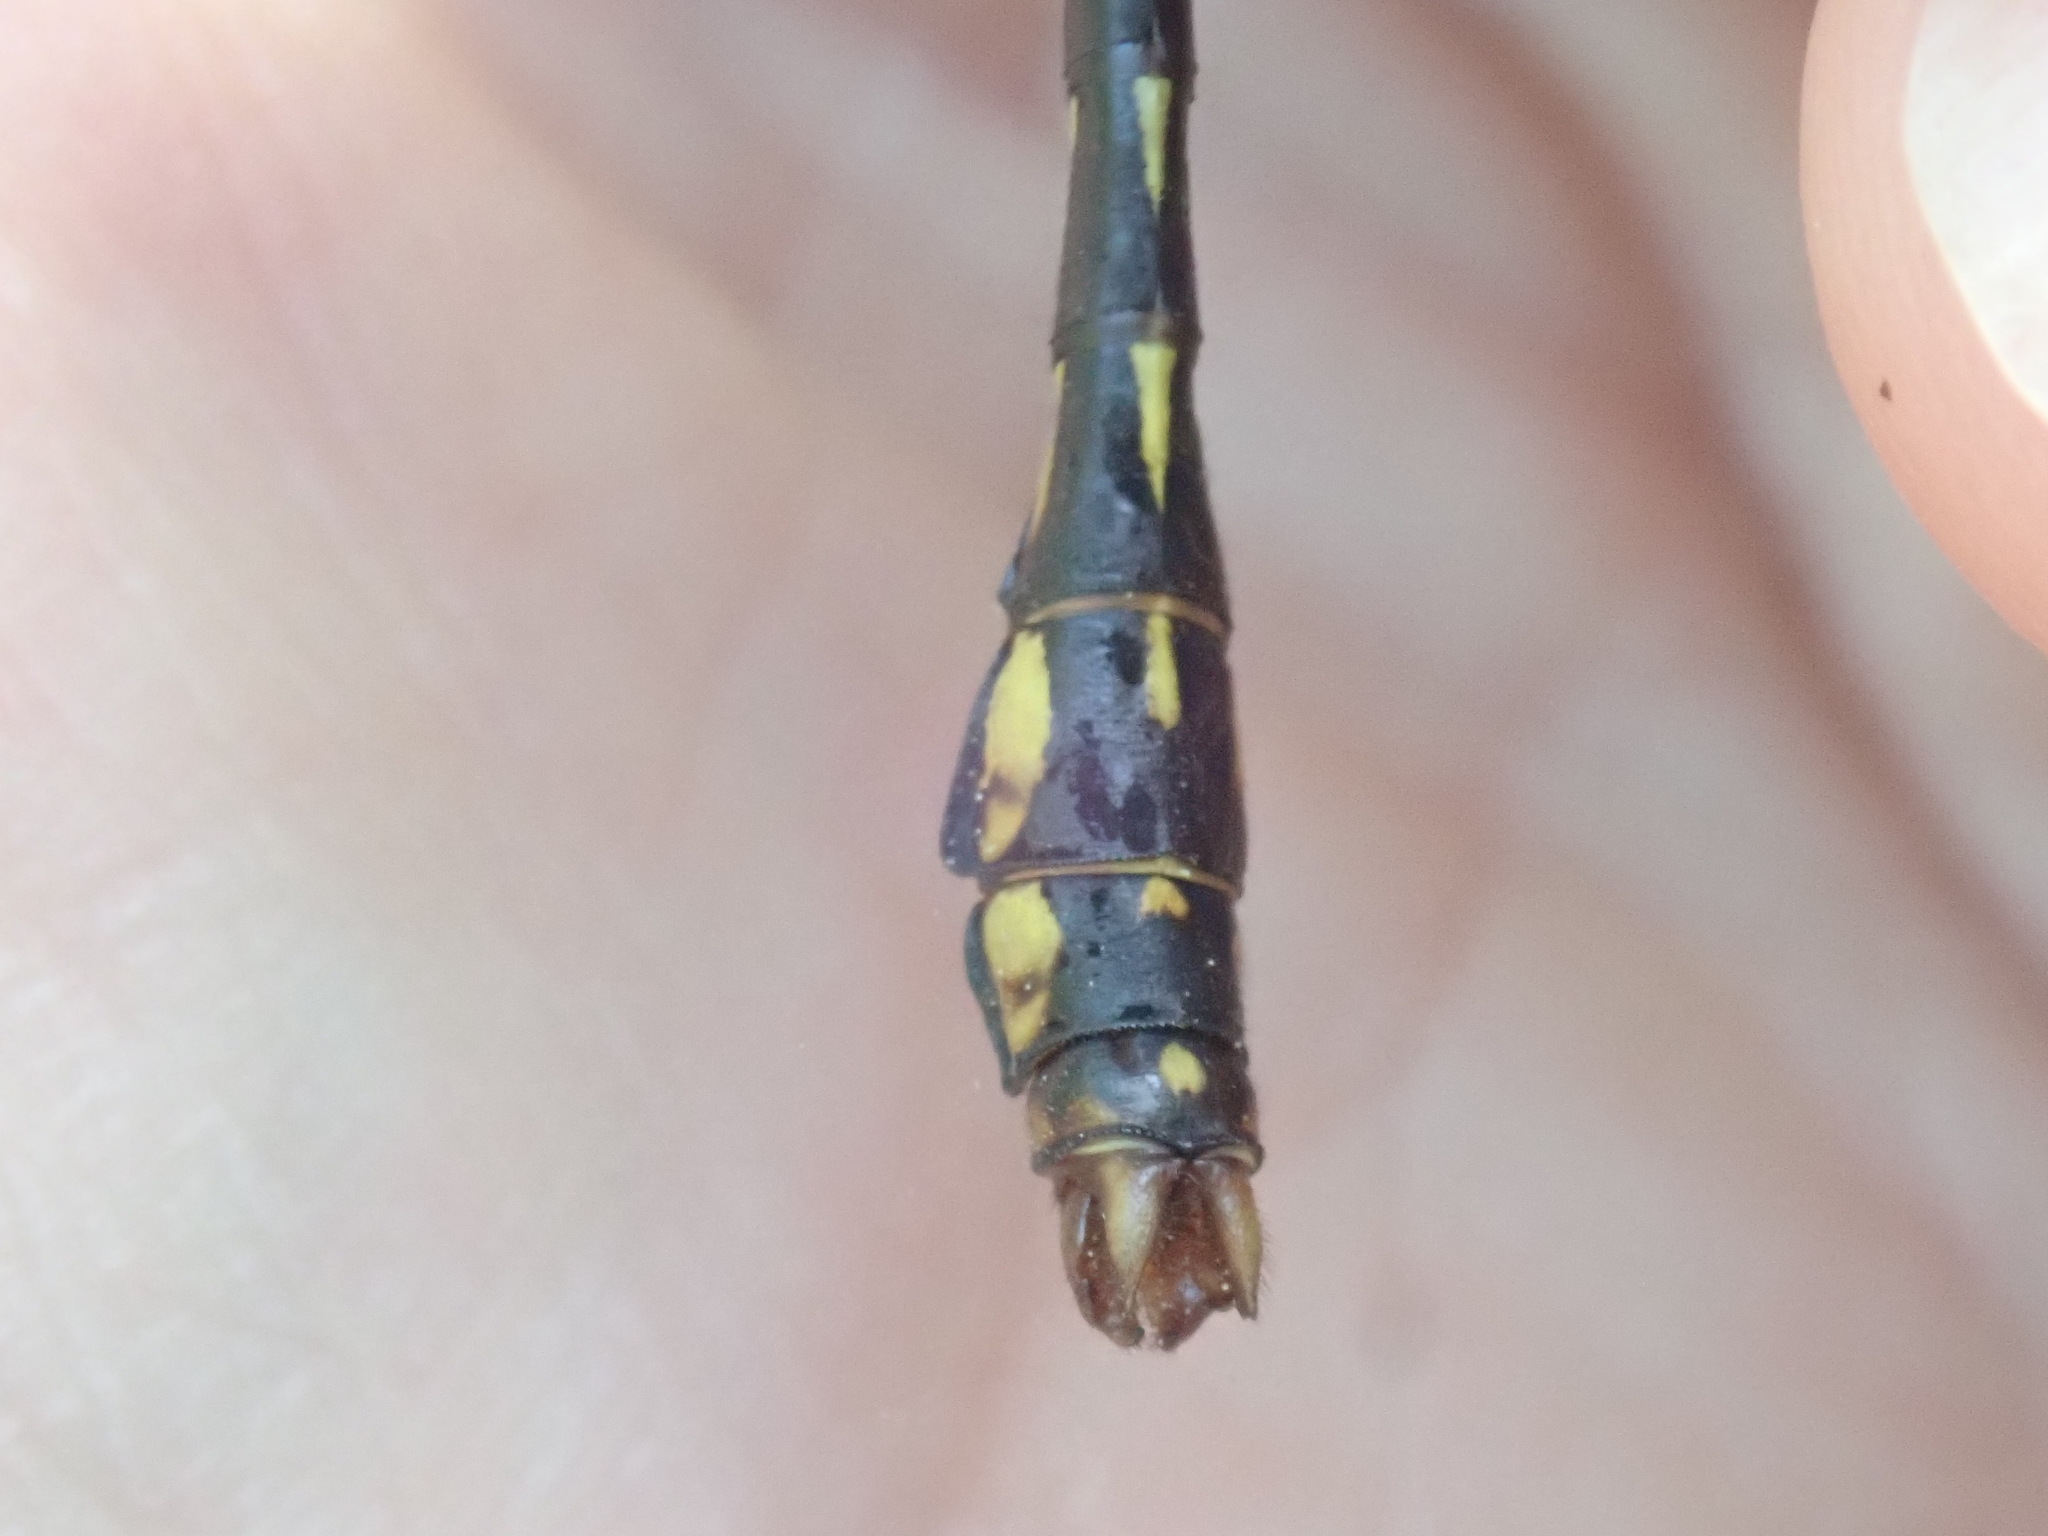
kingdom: Animalia
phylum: Arthropoda
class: Insecta
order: Odonata
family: Gomphidae
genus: Ophiogomphus
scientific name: Ophiogomphus mainensis
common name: Maine snaketail
